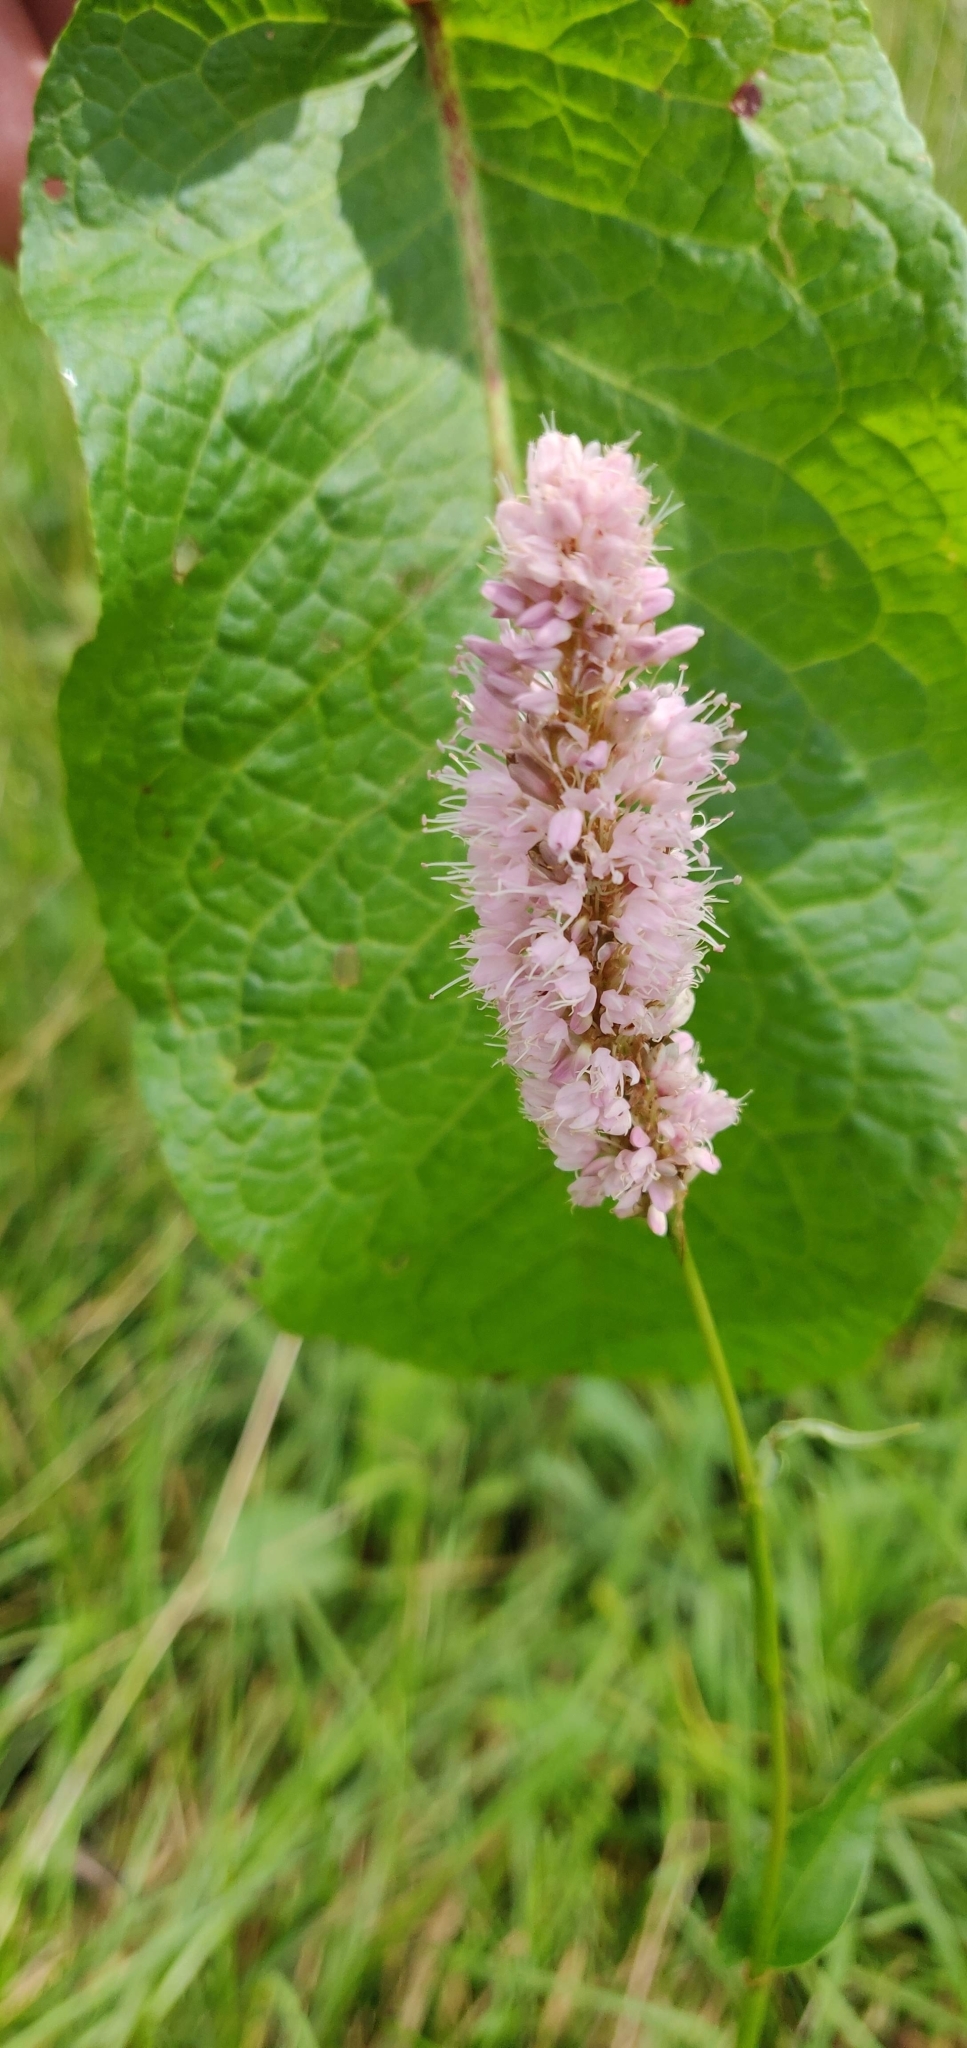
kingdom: Plantae
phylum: Tracheophyta
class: Magnoliopsida
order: Caryophyllales
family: Polygonaceae
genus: Bistorta
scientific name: Bistorta officinalis
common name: Common bistort
